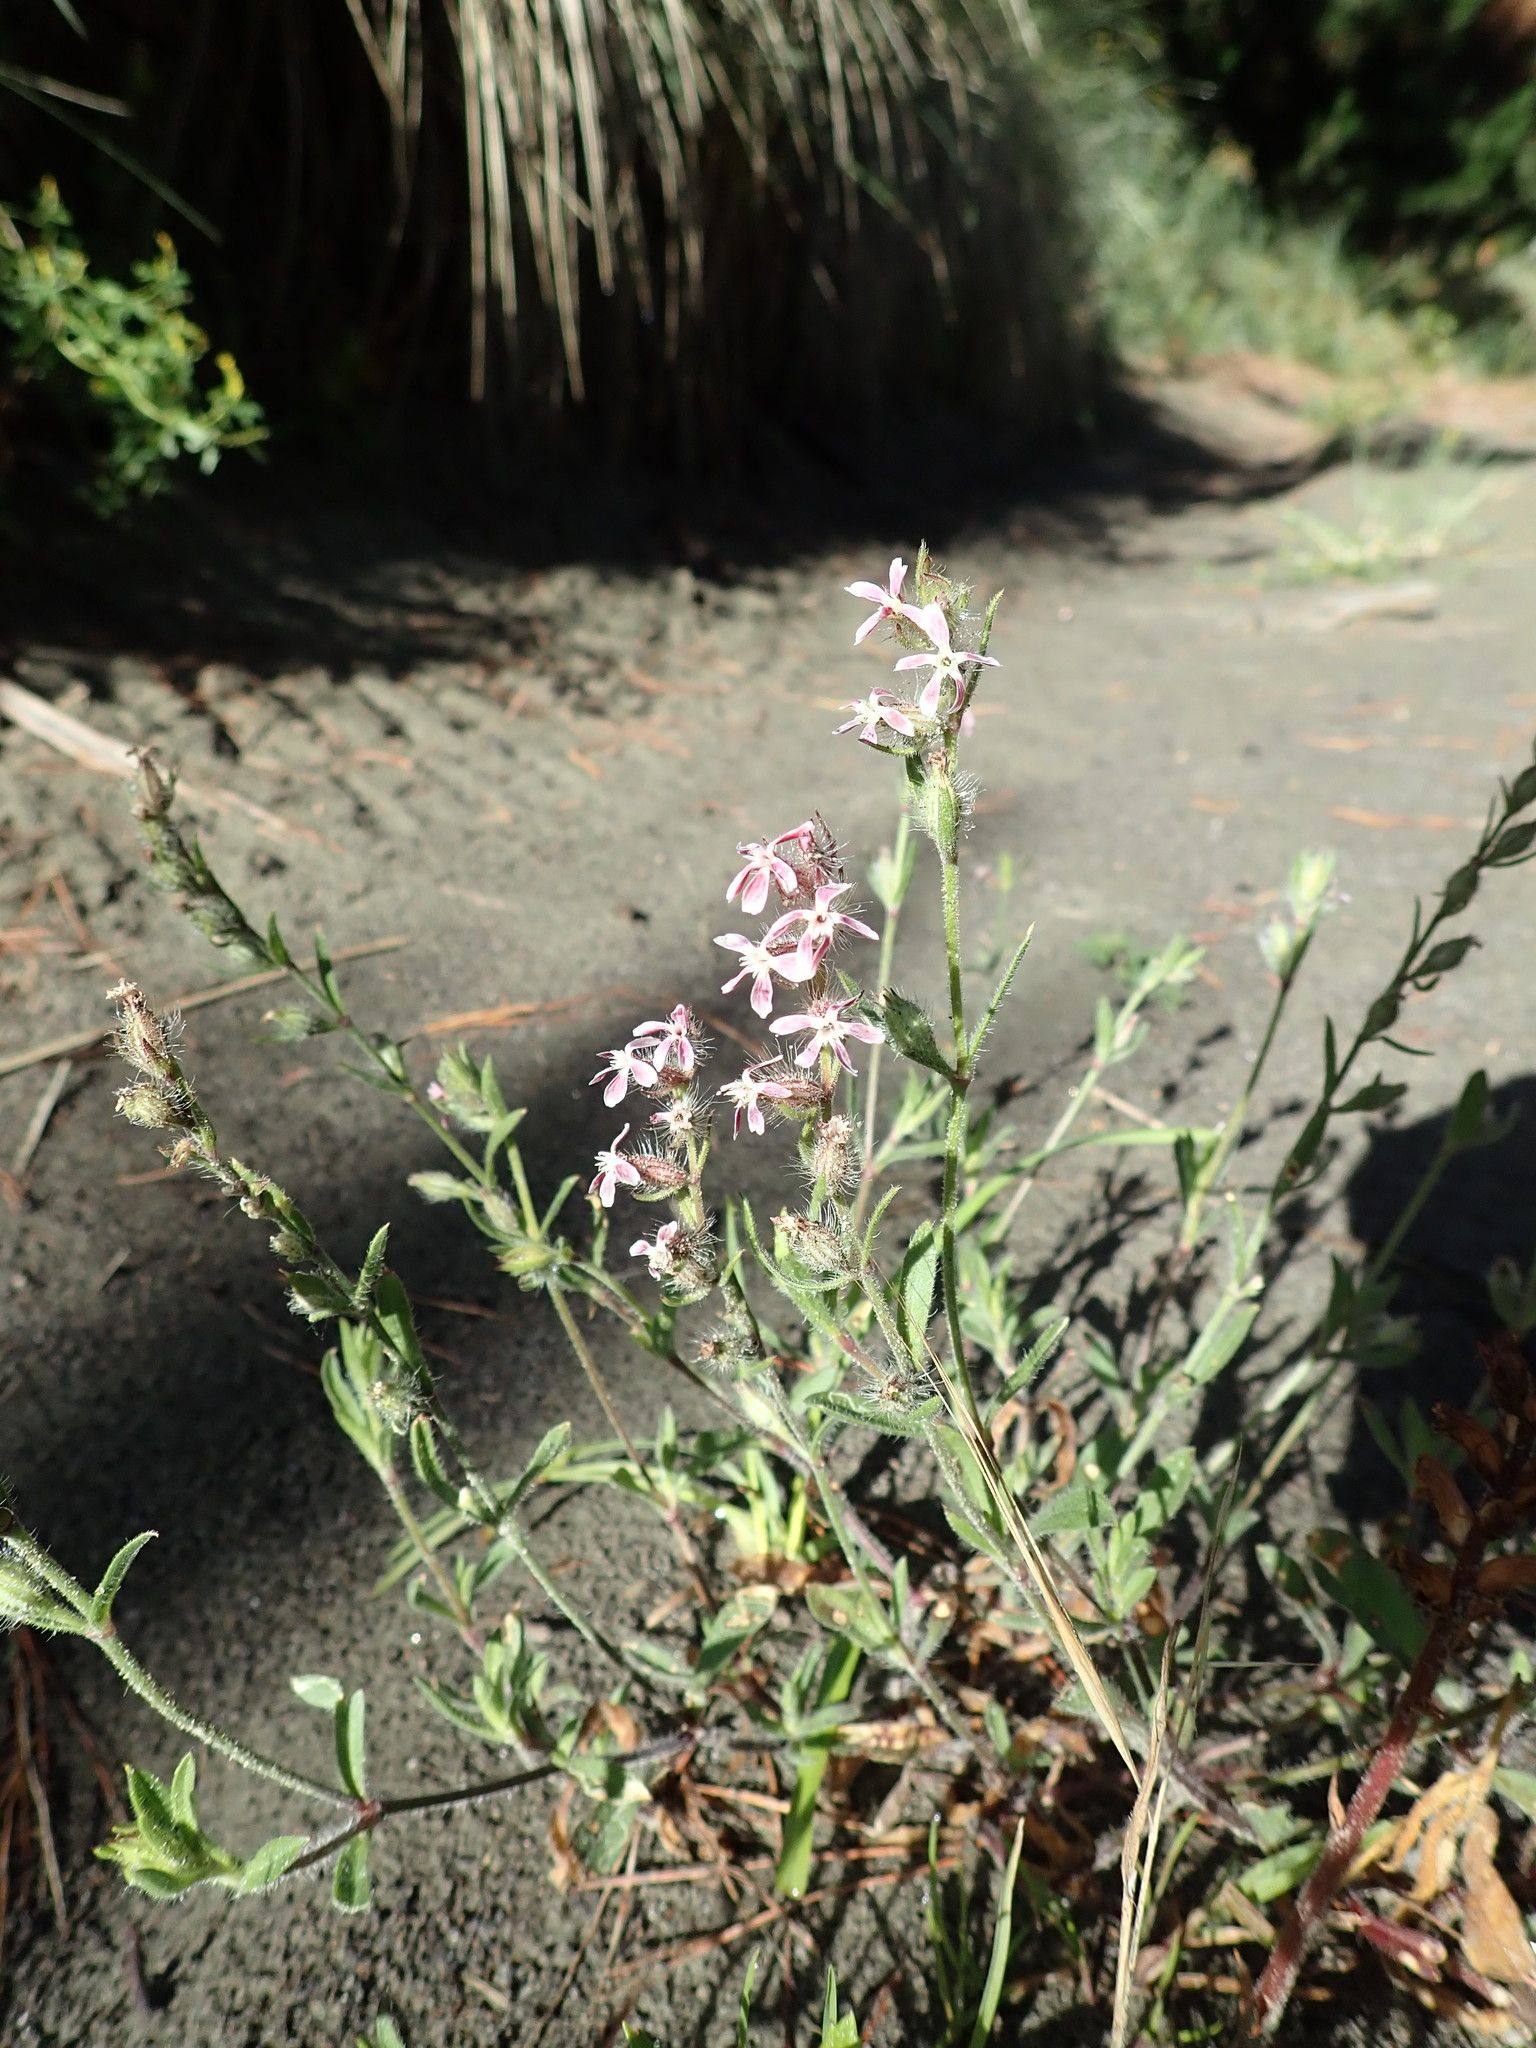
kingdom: Plantae
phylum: Tracheophyta
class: Magnoliopsida
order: Caryophyllales
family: Caryophyllaceae
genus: Silene
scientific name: Silene gallica
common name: Small-flowered catchfly
